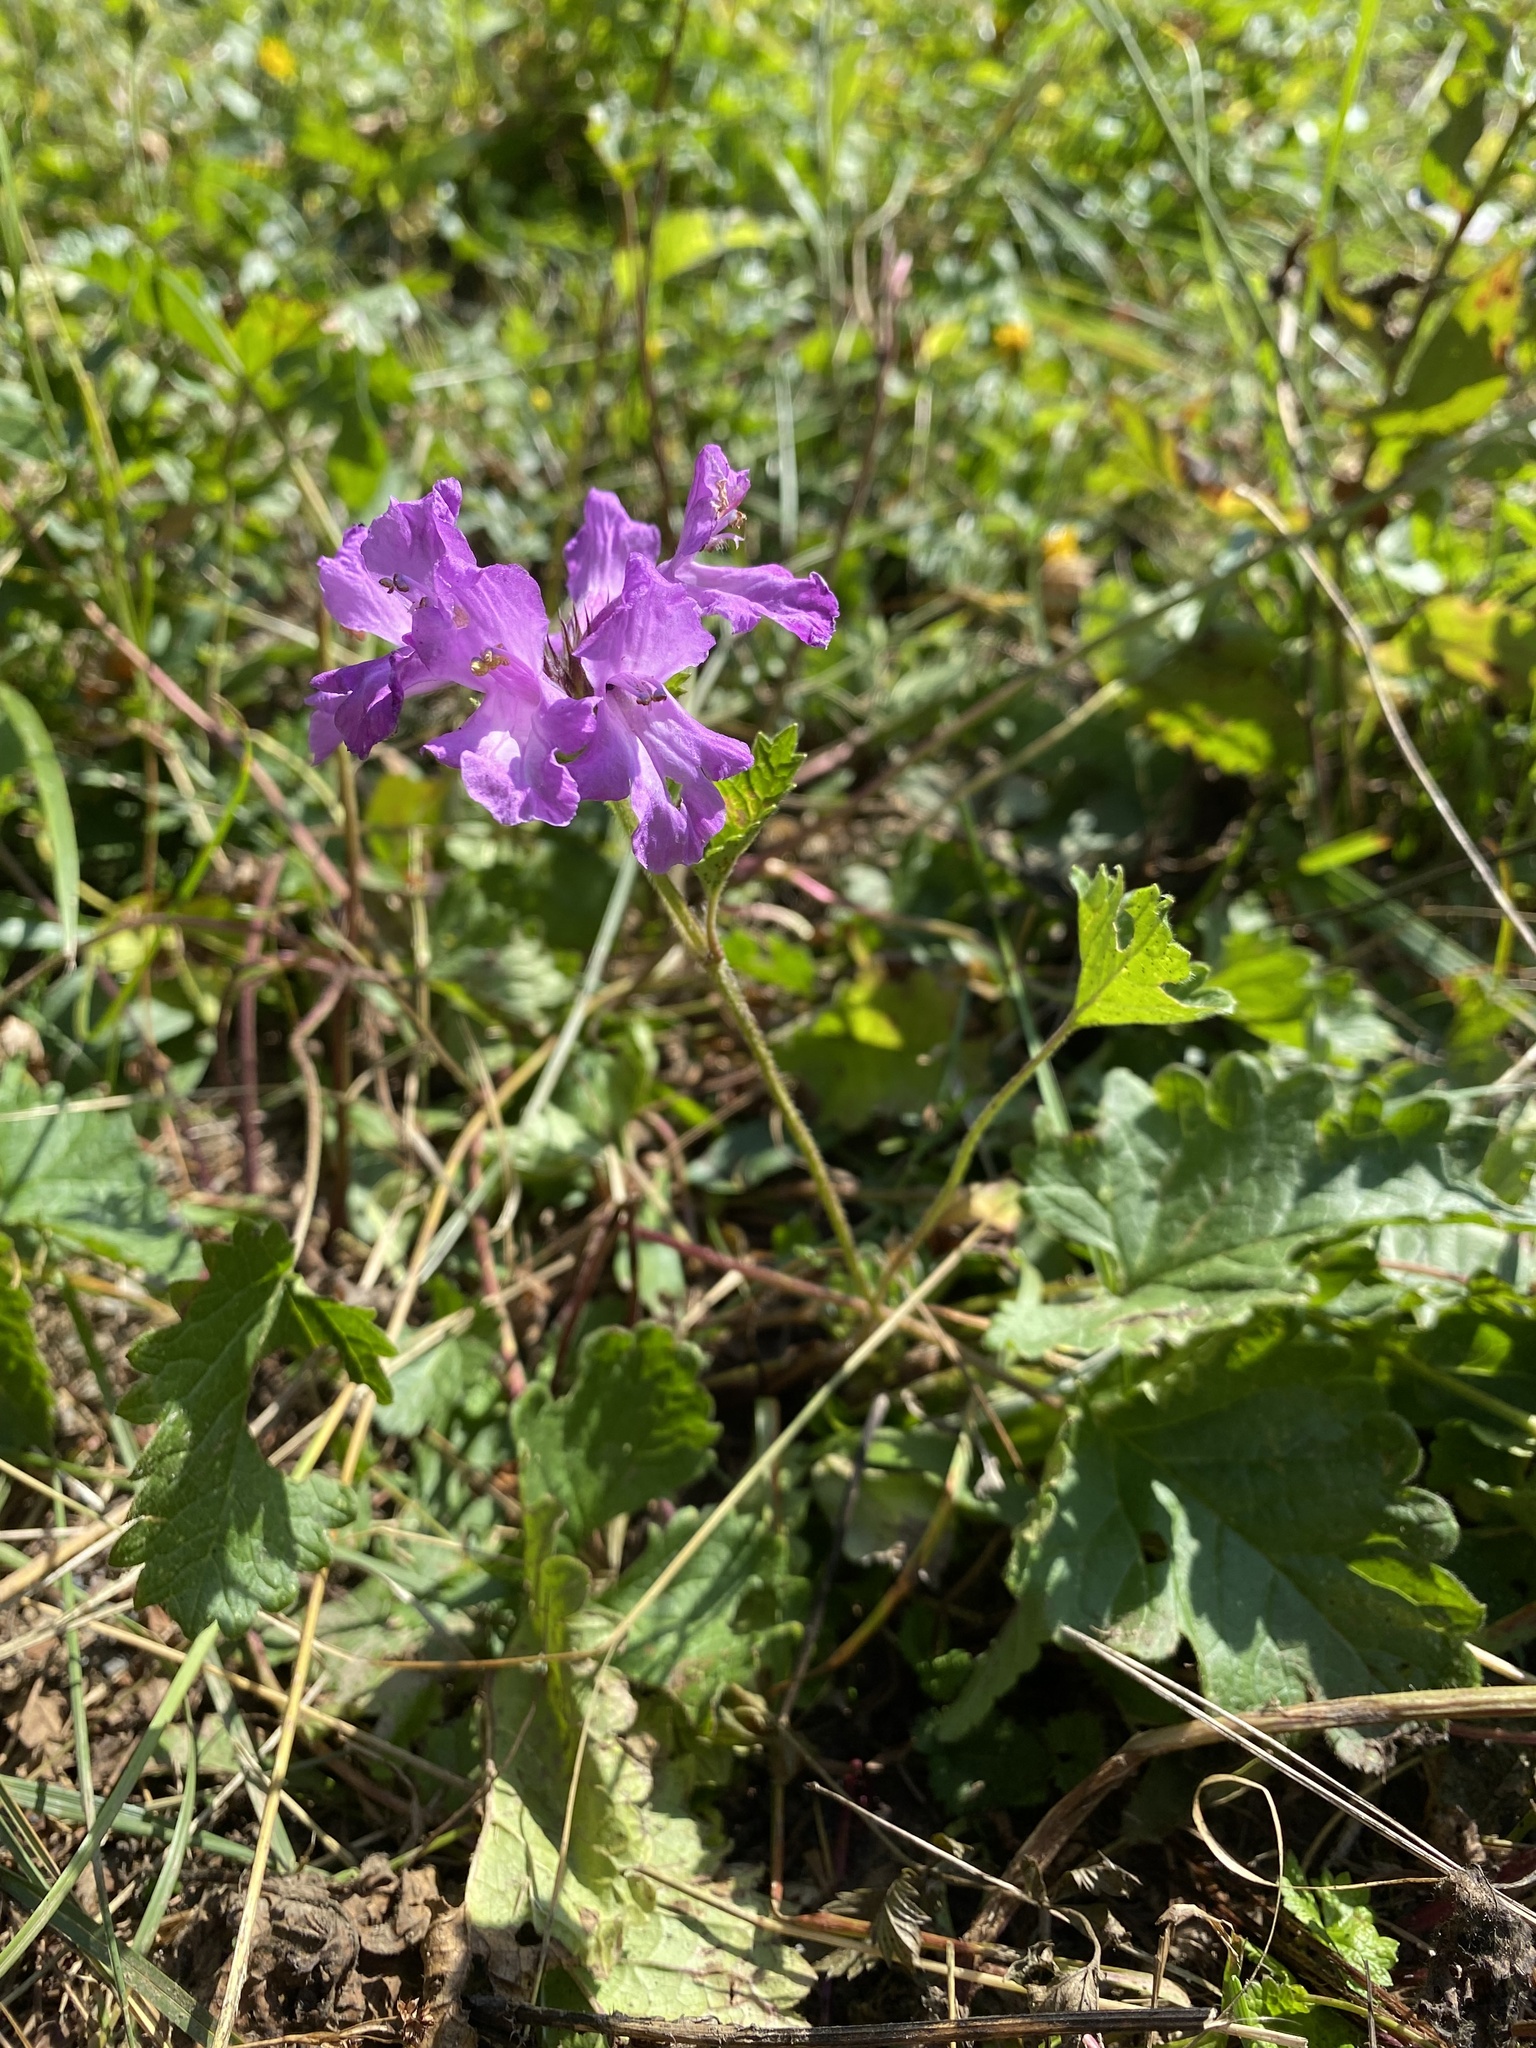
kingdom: Plantae
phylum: Tracheophyta
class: Magnoliopsida
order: Lamiales
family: Lamiaceae
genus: Betonica
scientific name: Betonica macrantha
